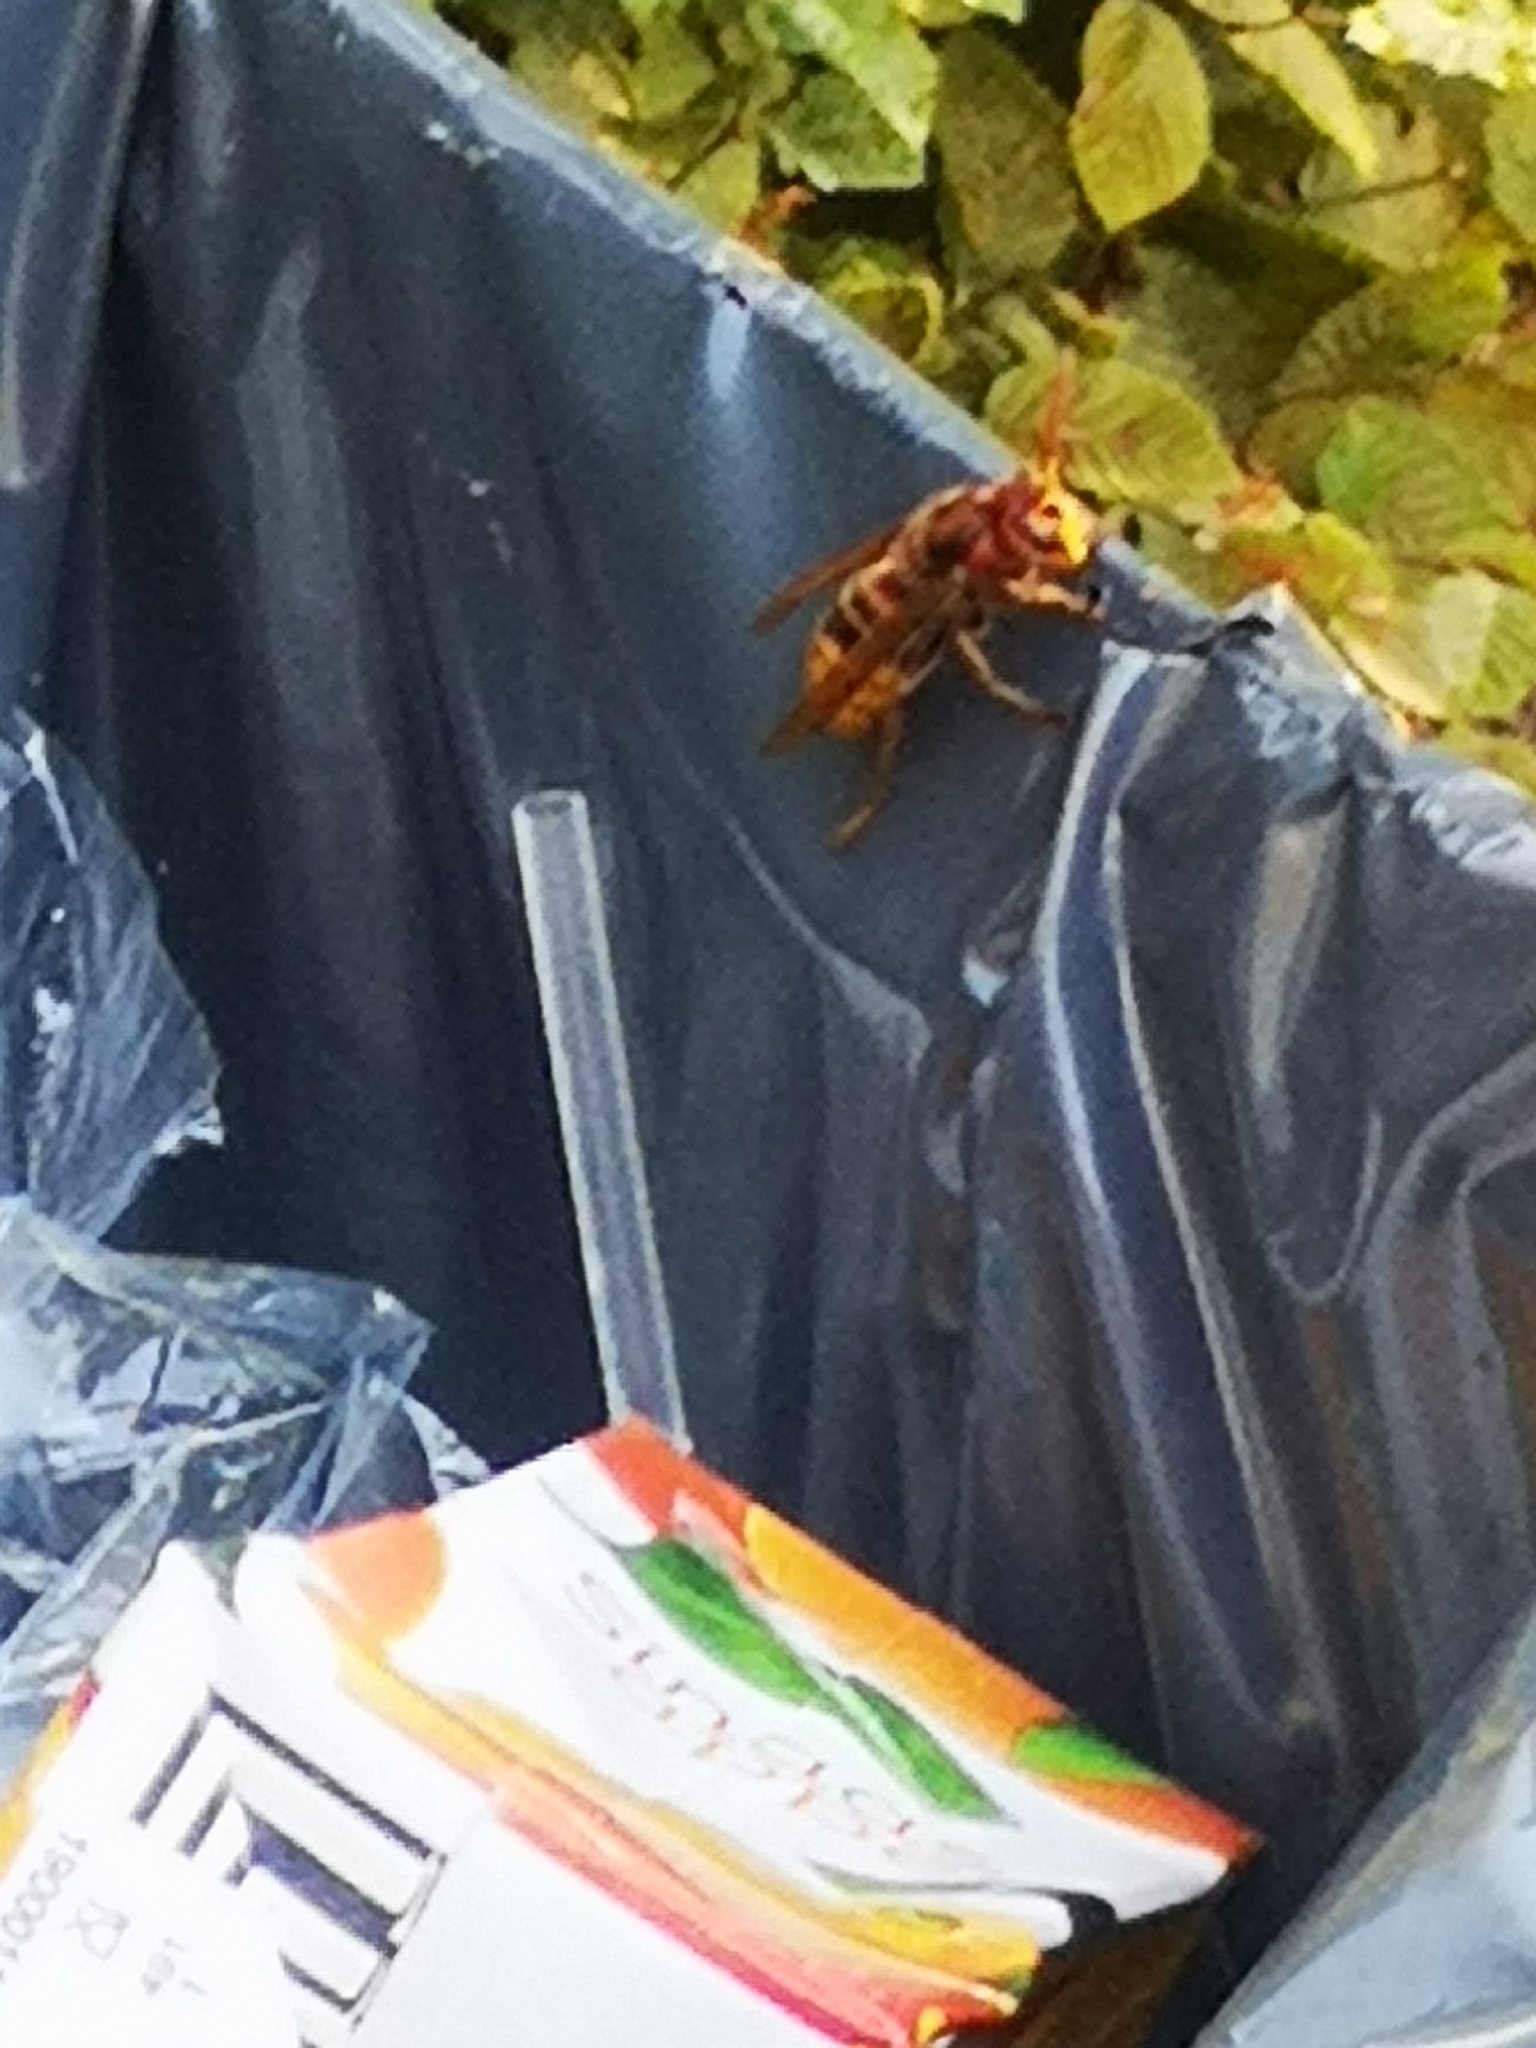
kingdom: Animalia
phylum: Arthropoda
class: Insecta
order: Hymenoptera
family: Vespidae
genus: Vespa
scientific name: Vespa crabro
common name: Hornet
